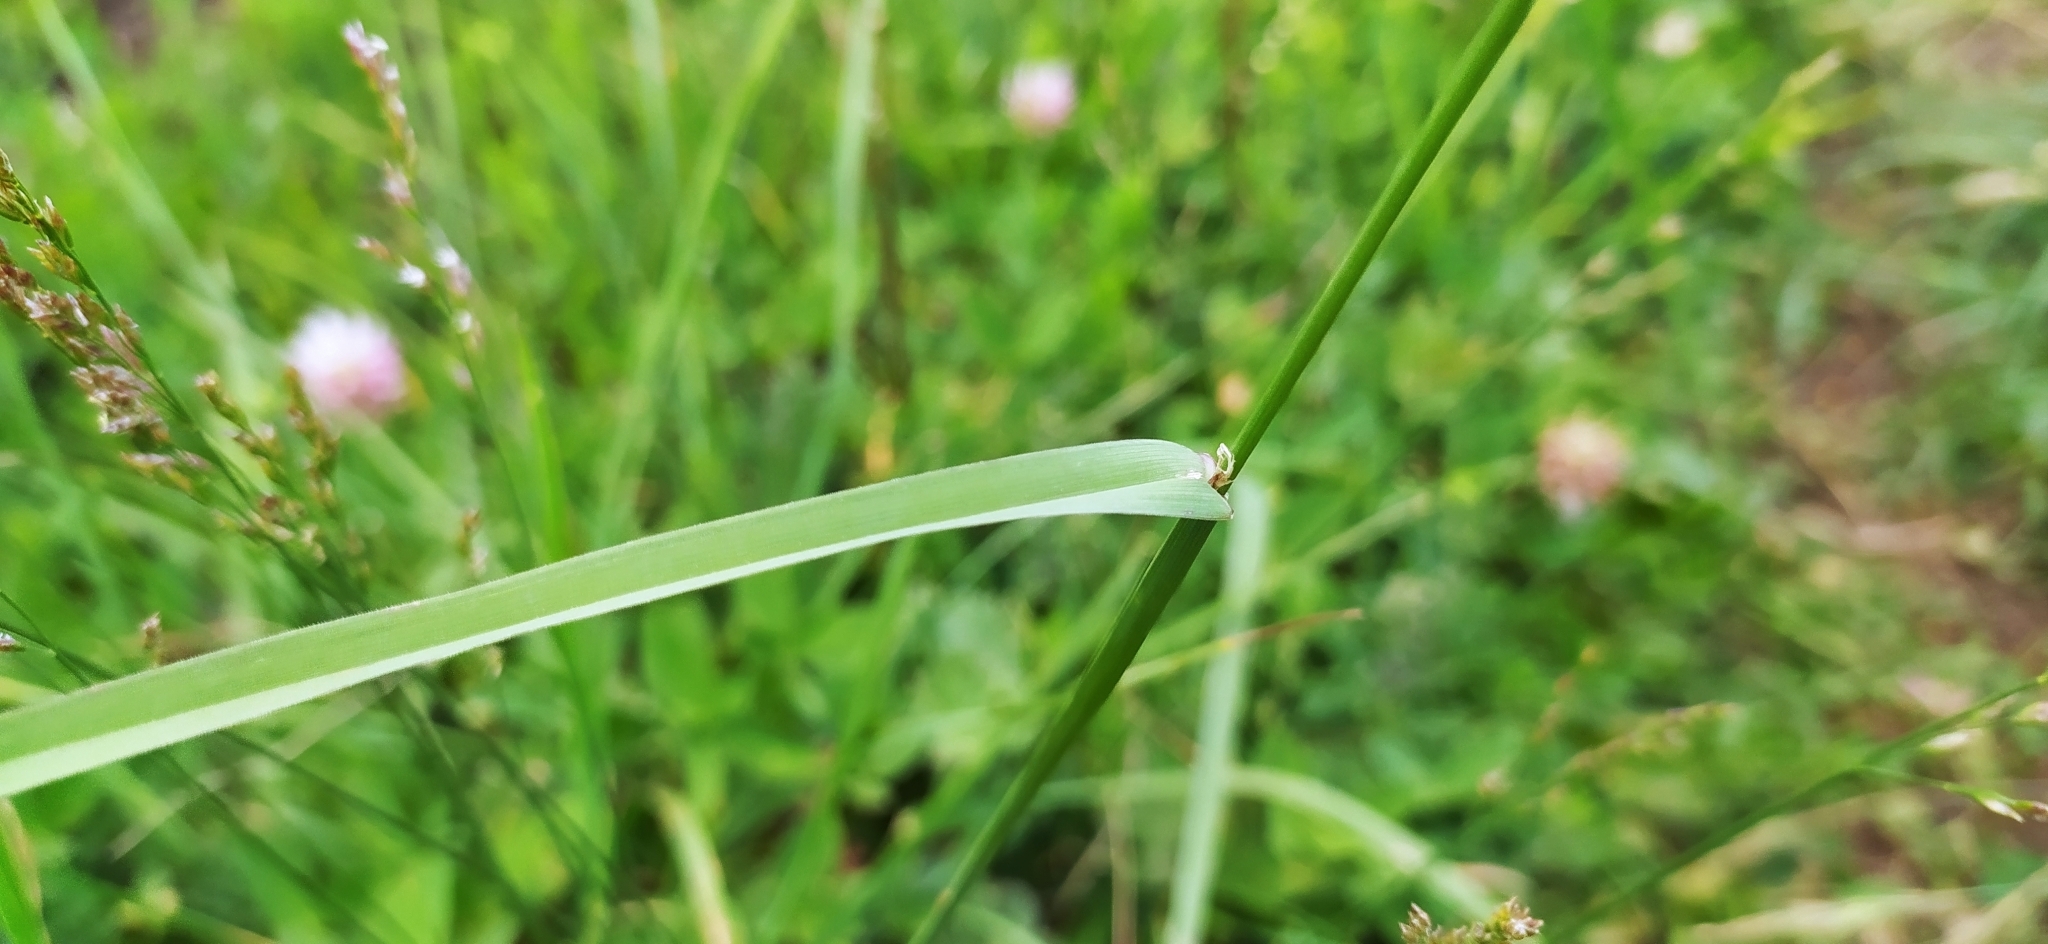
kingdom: Plantae
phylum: Tracheophyta
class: Liliopsida
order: Poales
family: Poaceae
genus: Dactylis
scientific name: Dactylis glomerata
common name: Orchardgrass
